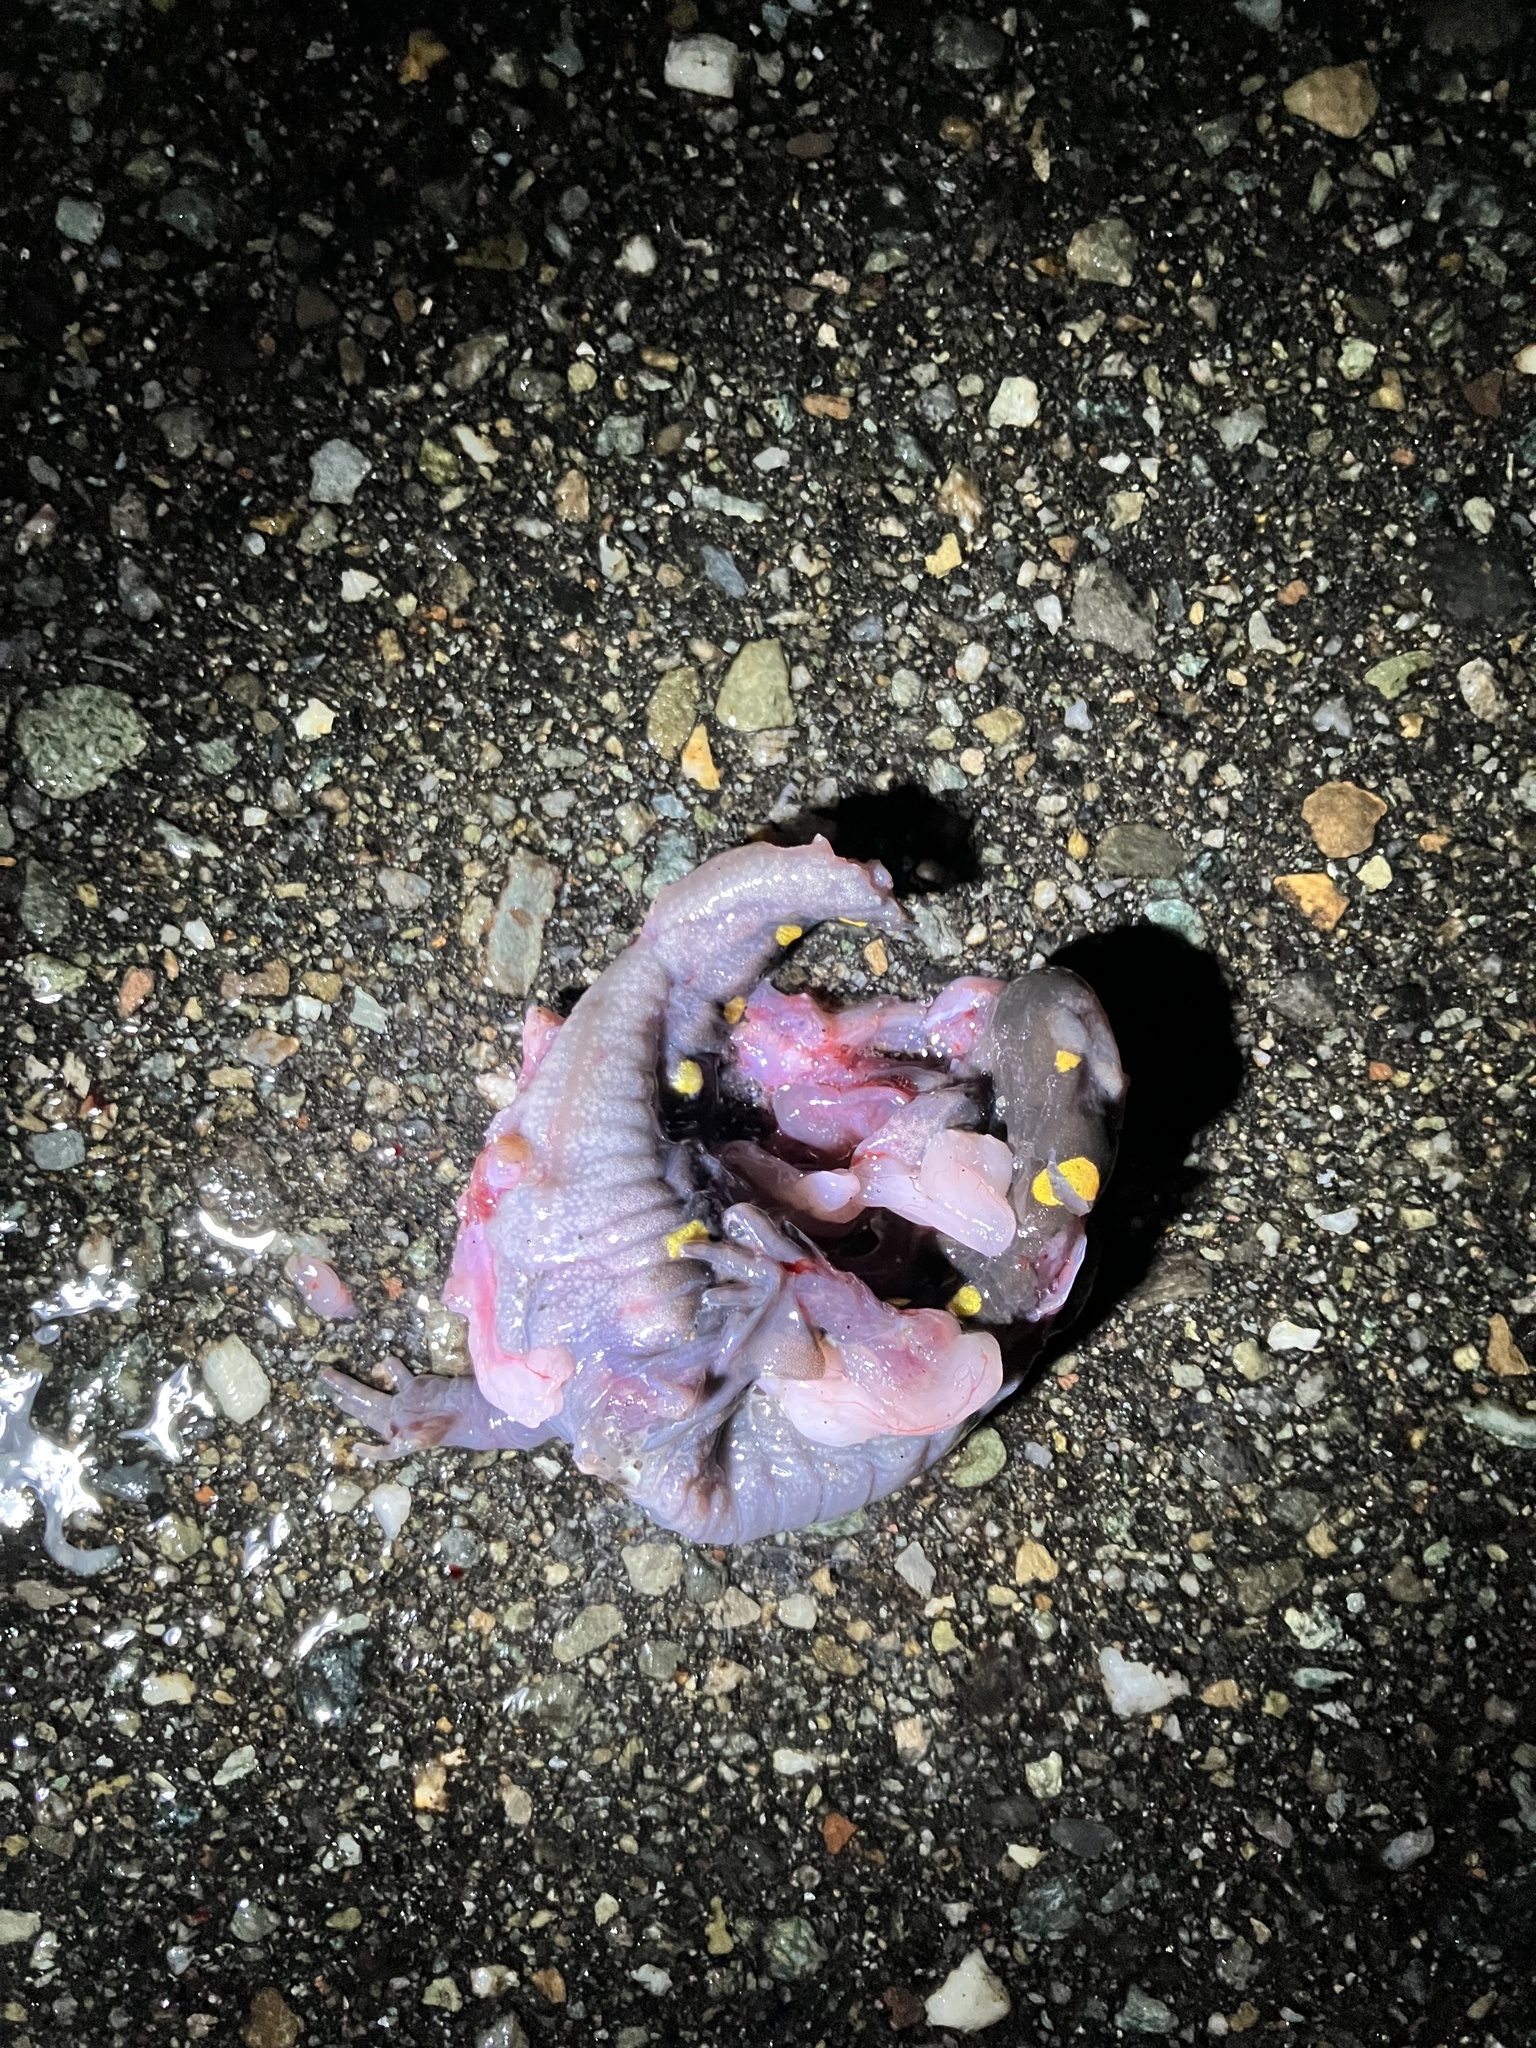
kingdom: Animalia
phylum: Chordata
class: Amphibia
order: Caudata
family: Ambystomatidae
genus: Ambystoma
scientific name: Ambystoma maculatum
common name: Spotted salamander
